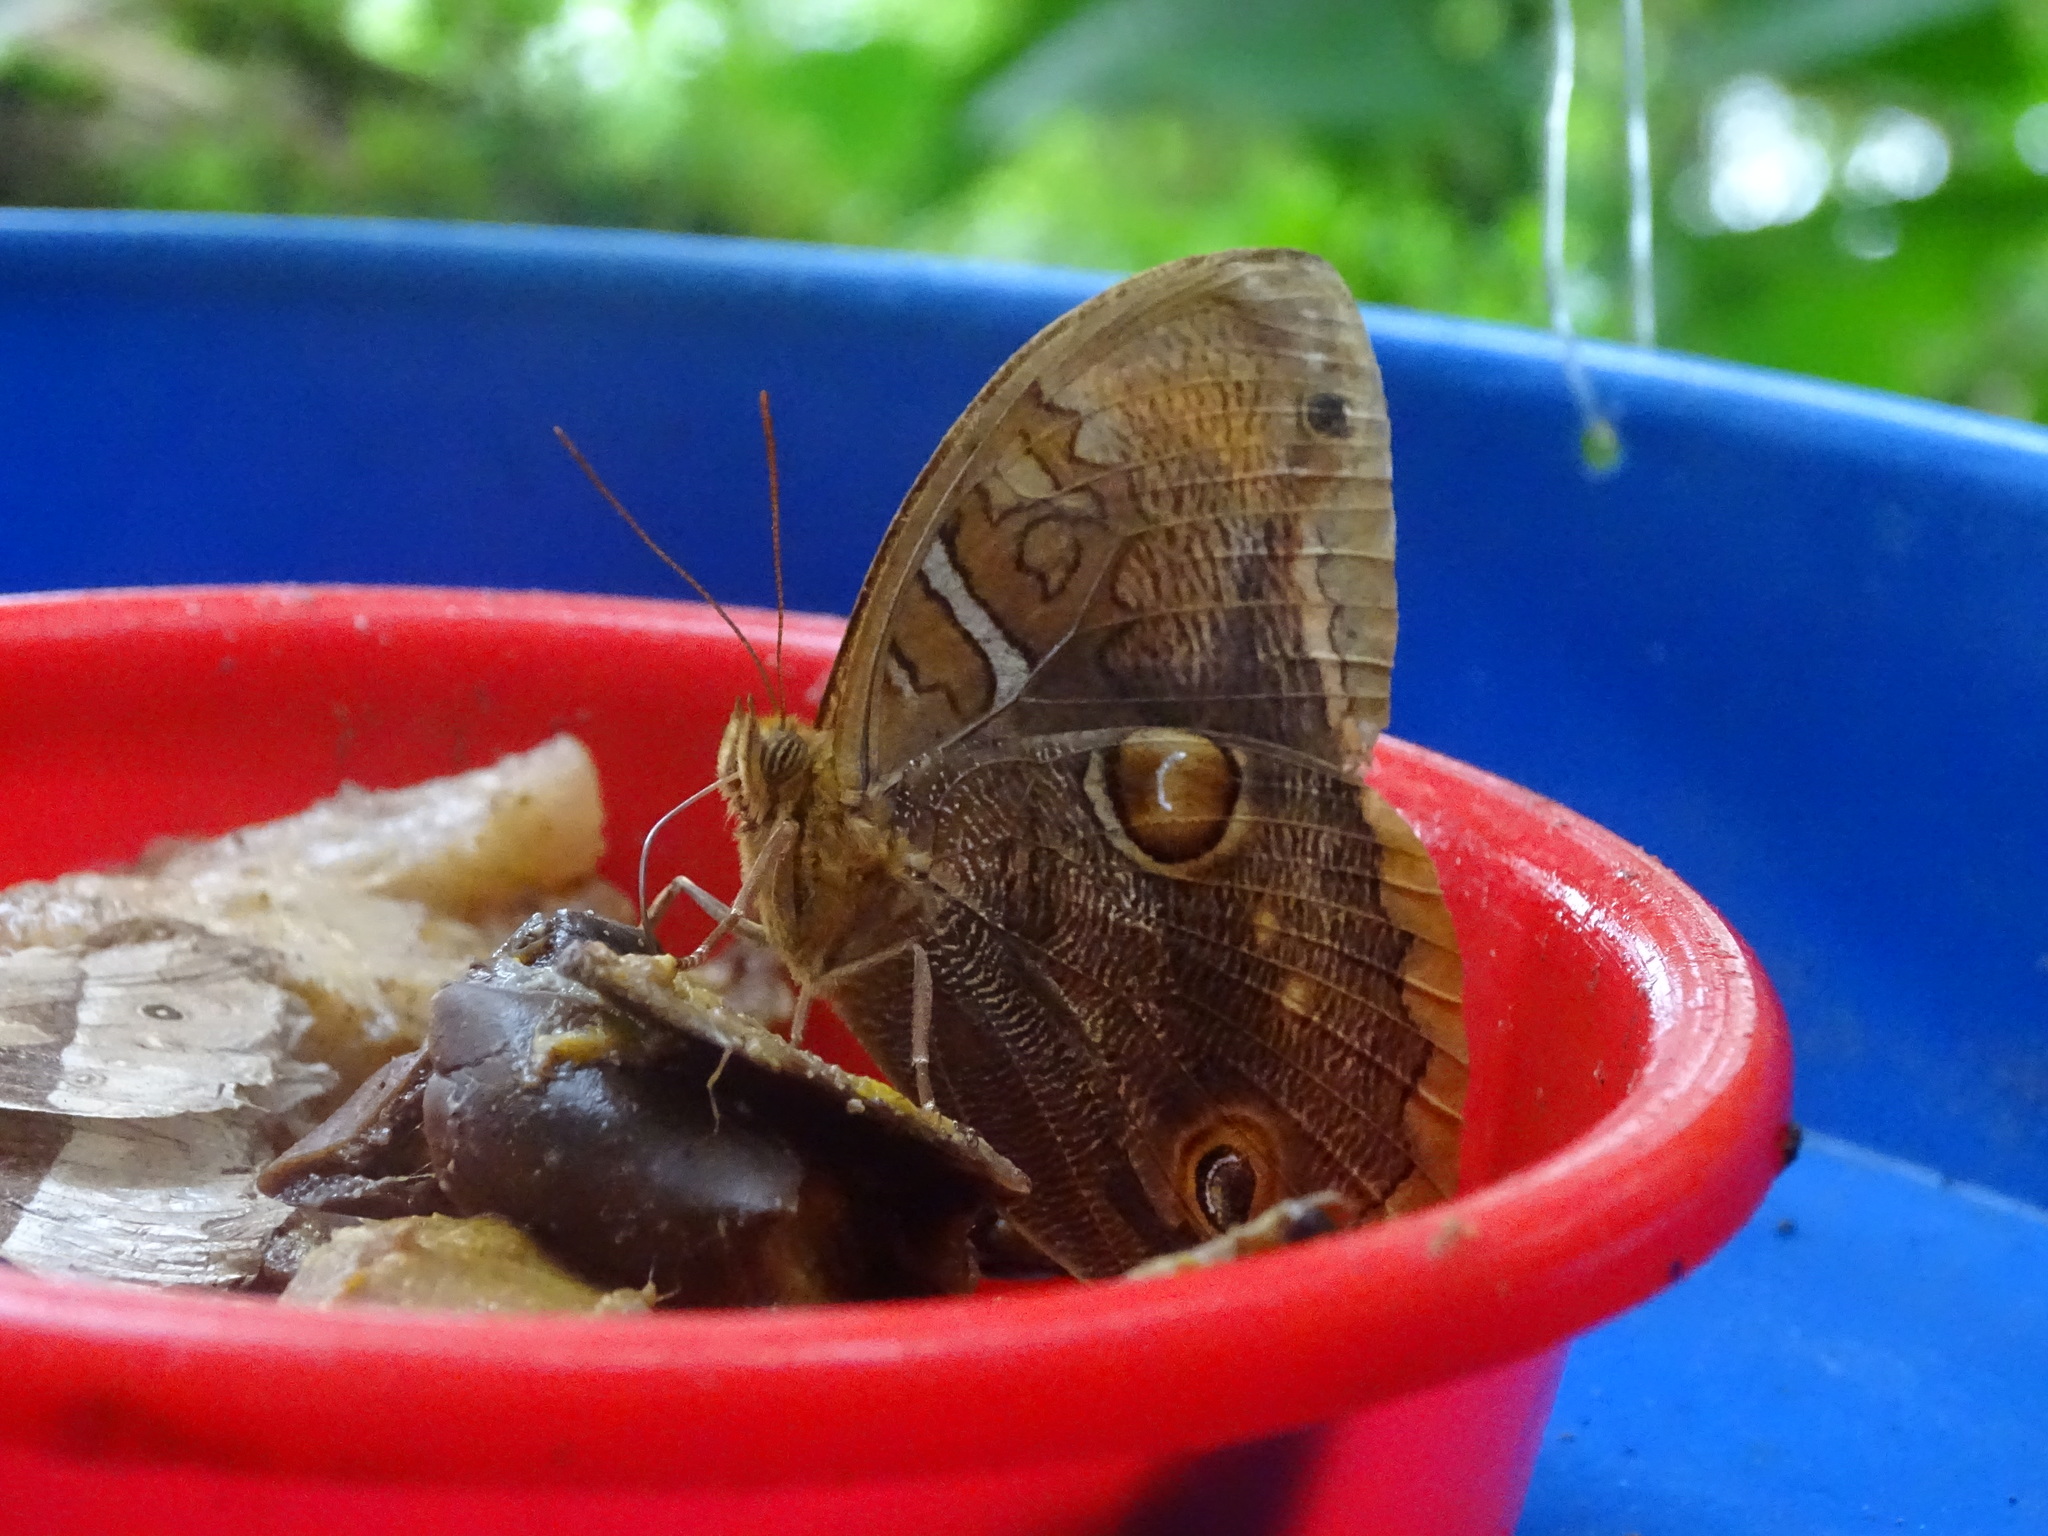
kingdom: Animalia
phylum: Arthropoda
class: Insecta
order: Lepidoptera
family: Nymphalidae
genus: Opoptera
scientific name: Opoptera staudingeri
